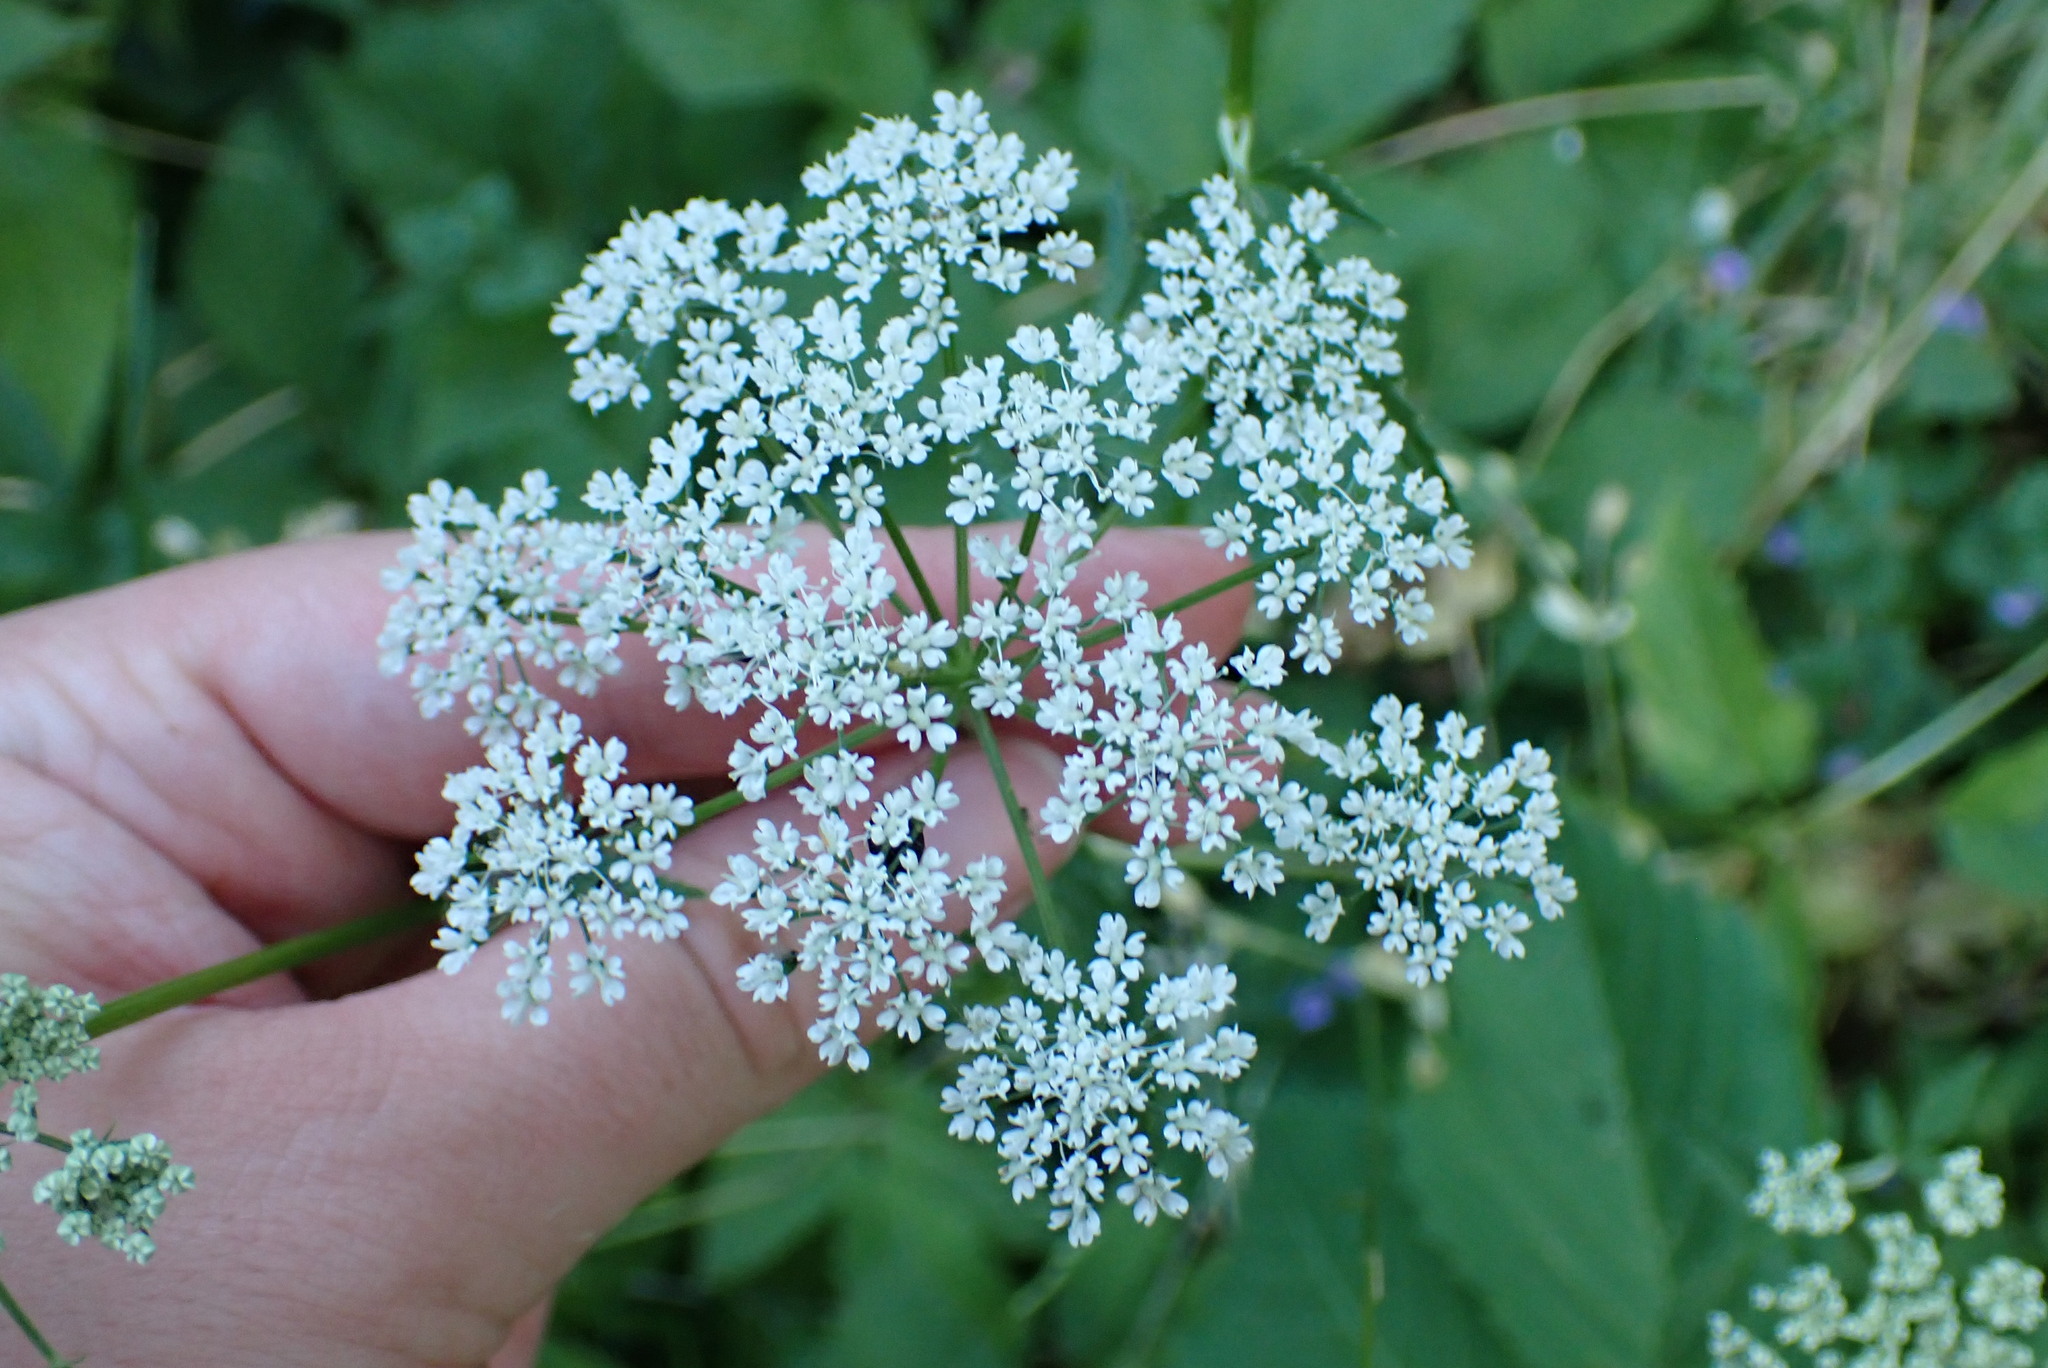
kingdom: Plantae
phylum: Tracheophyta
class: Magnoliopsida
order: Apiales
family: Apiaceae
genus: Aegopodium
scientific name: Aegopodium podagraria
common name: Ground-elder
